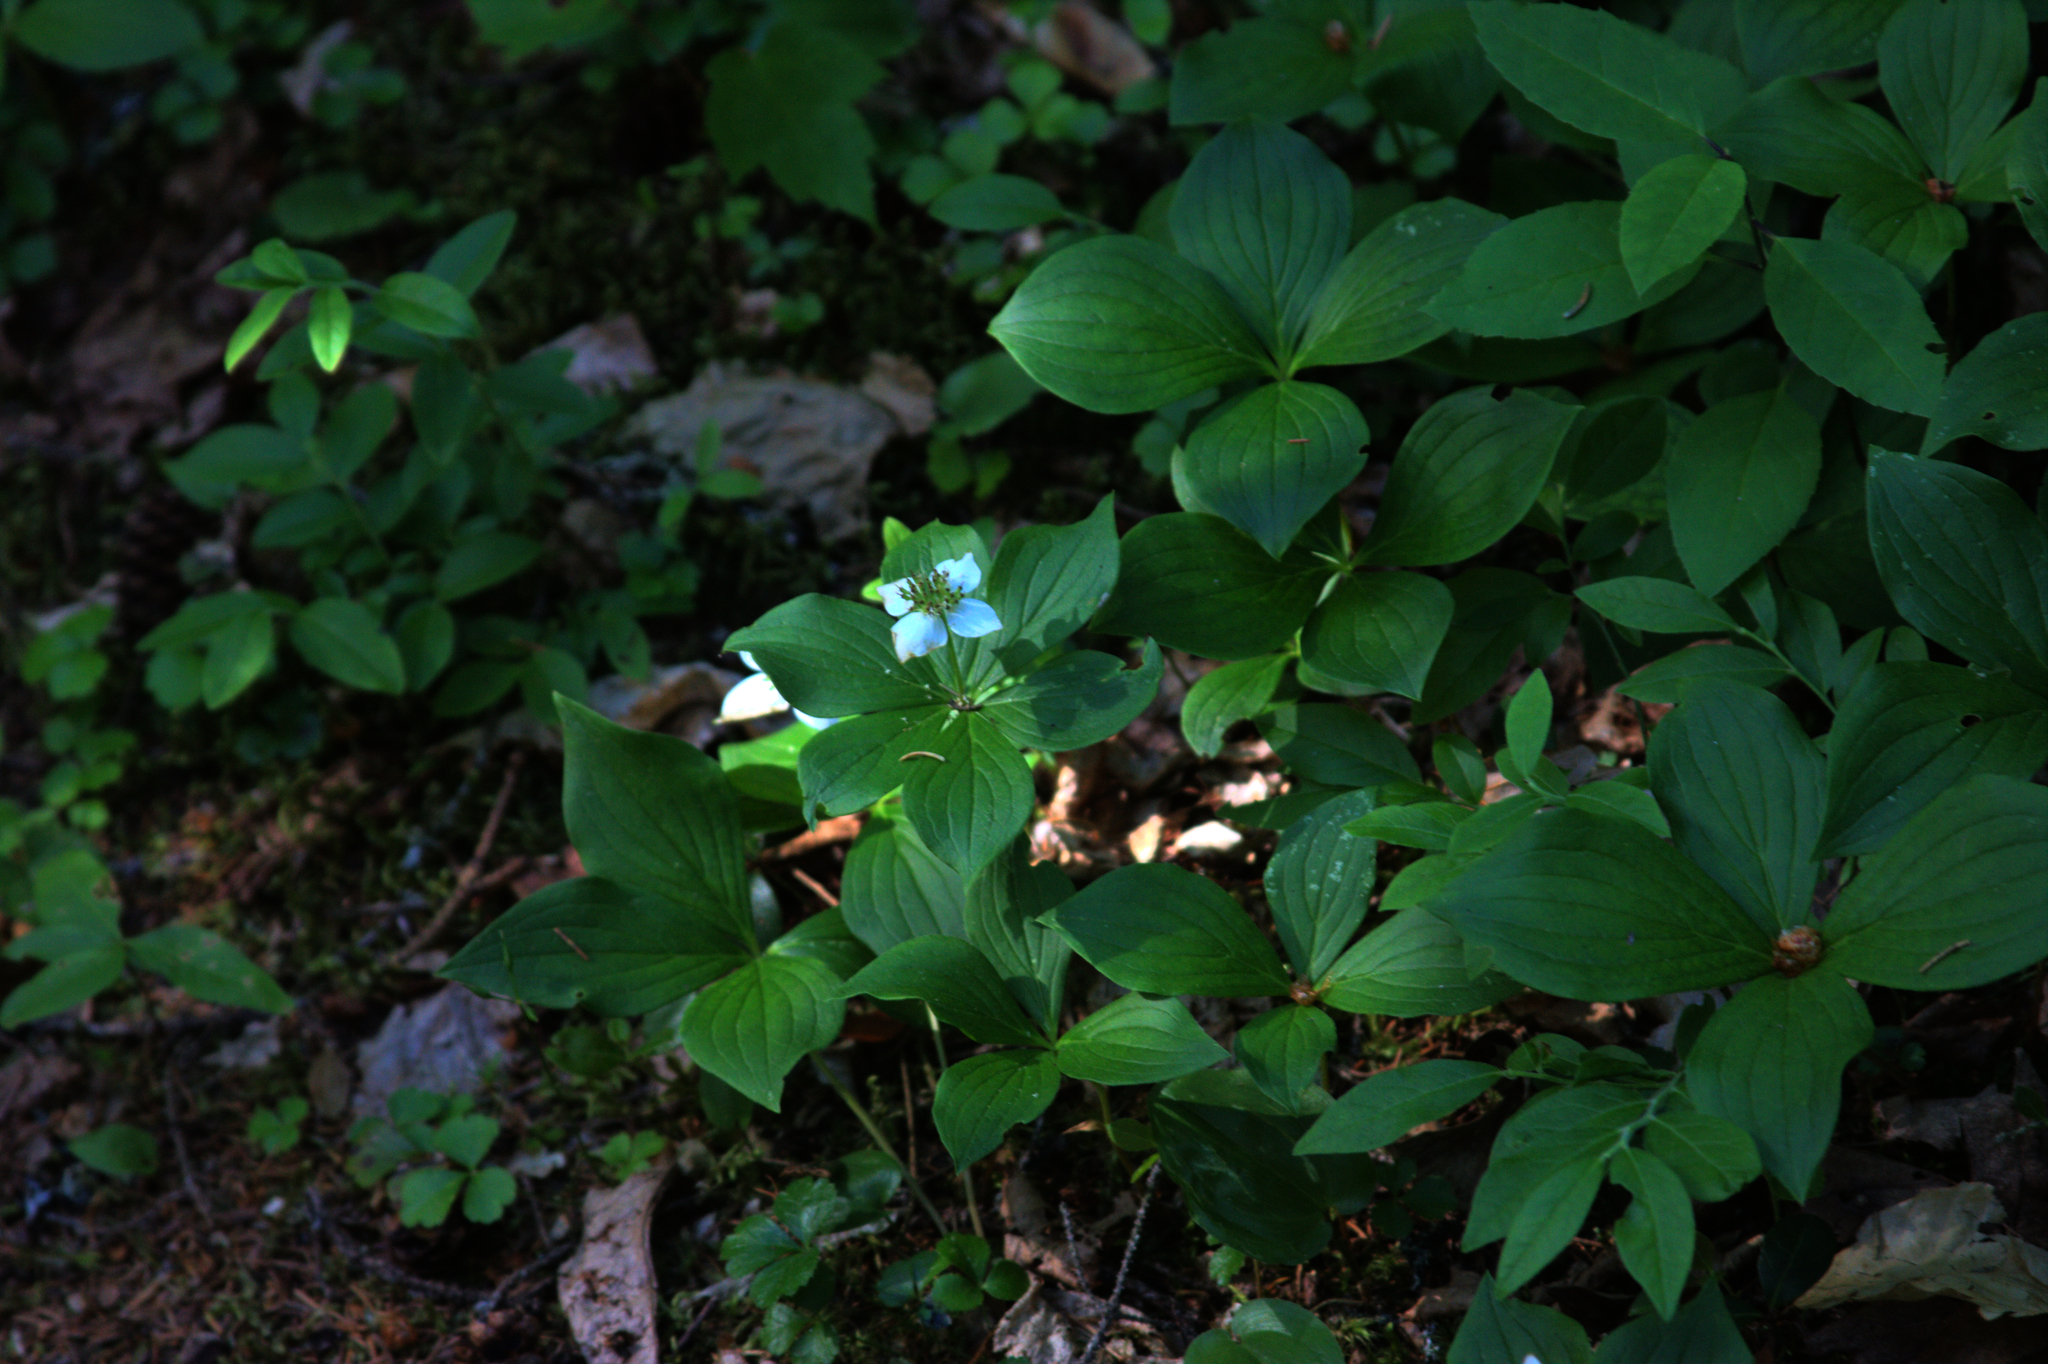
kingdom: Plantae
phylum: Tracheophyta
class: Magnoliopsida
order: Cornales
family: Cornaceae
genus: Cornus
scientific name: Cornus canadensis
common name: Creeping dogwood
